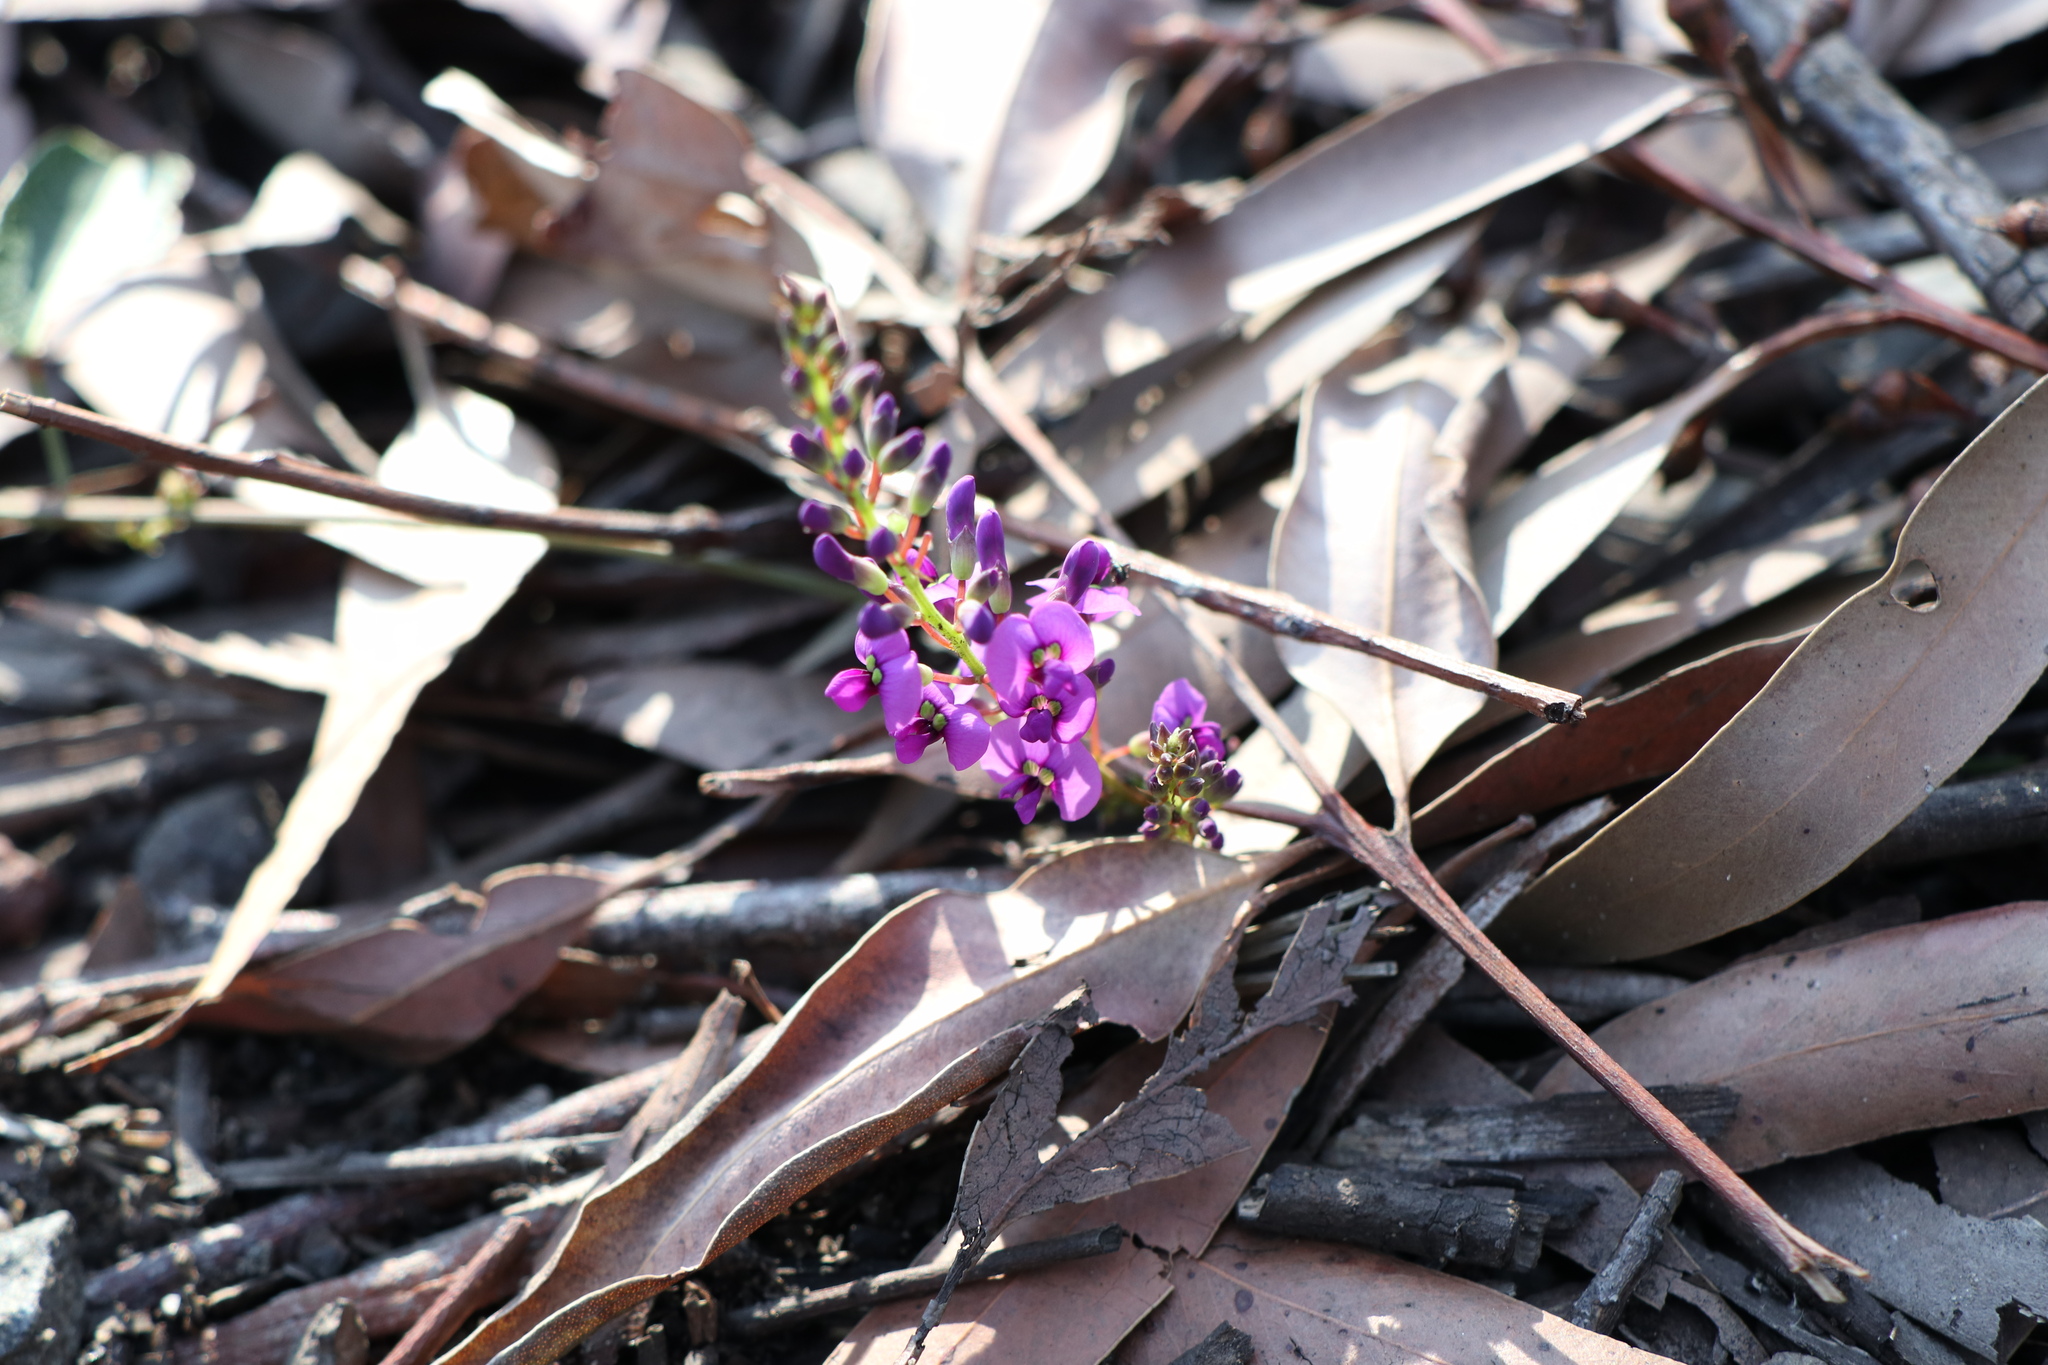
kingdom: Plantae
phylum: Tracheophyta
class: Magnoliopsida
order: Fabales
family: Fabaceae
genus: Hardenbergia
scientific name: Hardenbergia violacea
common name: Coral-pea
